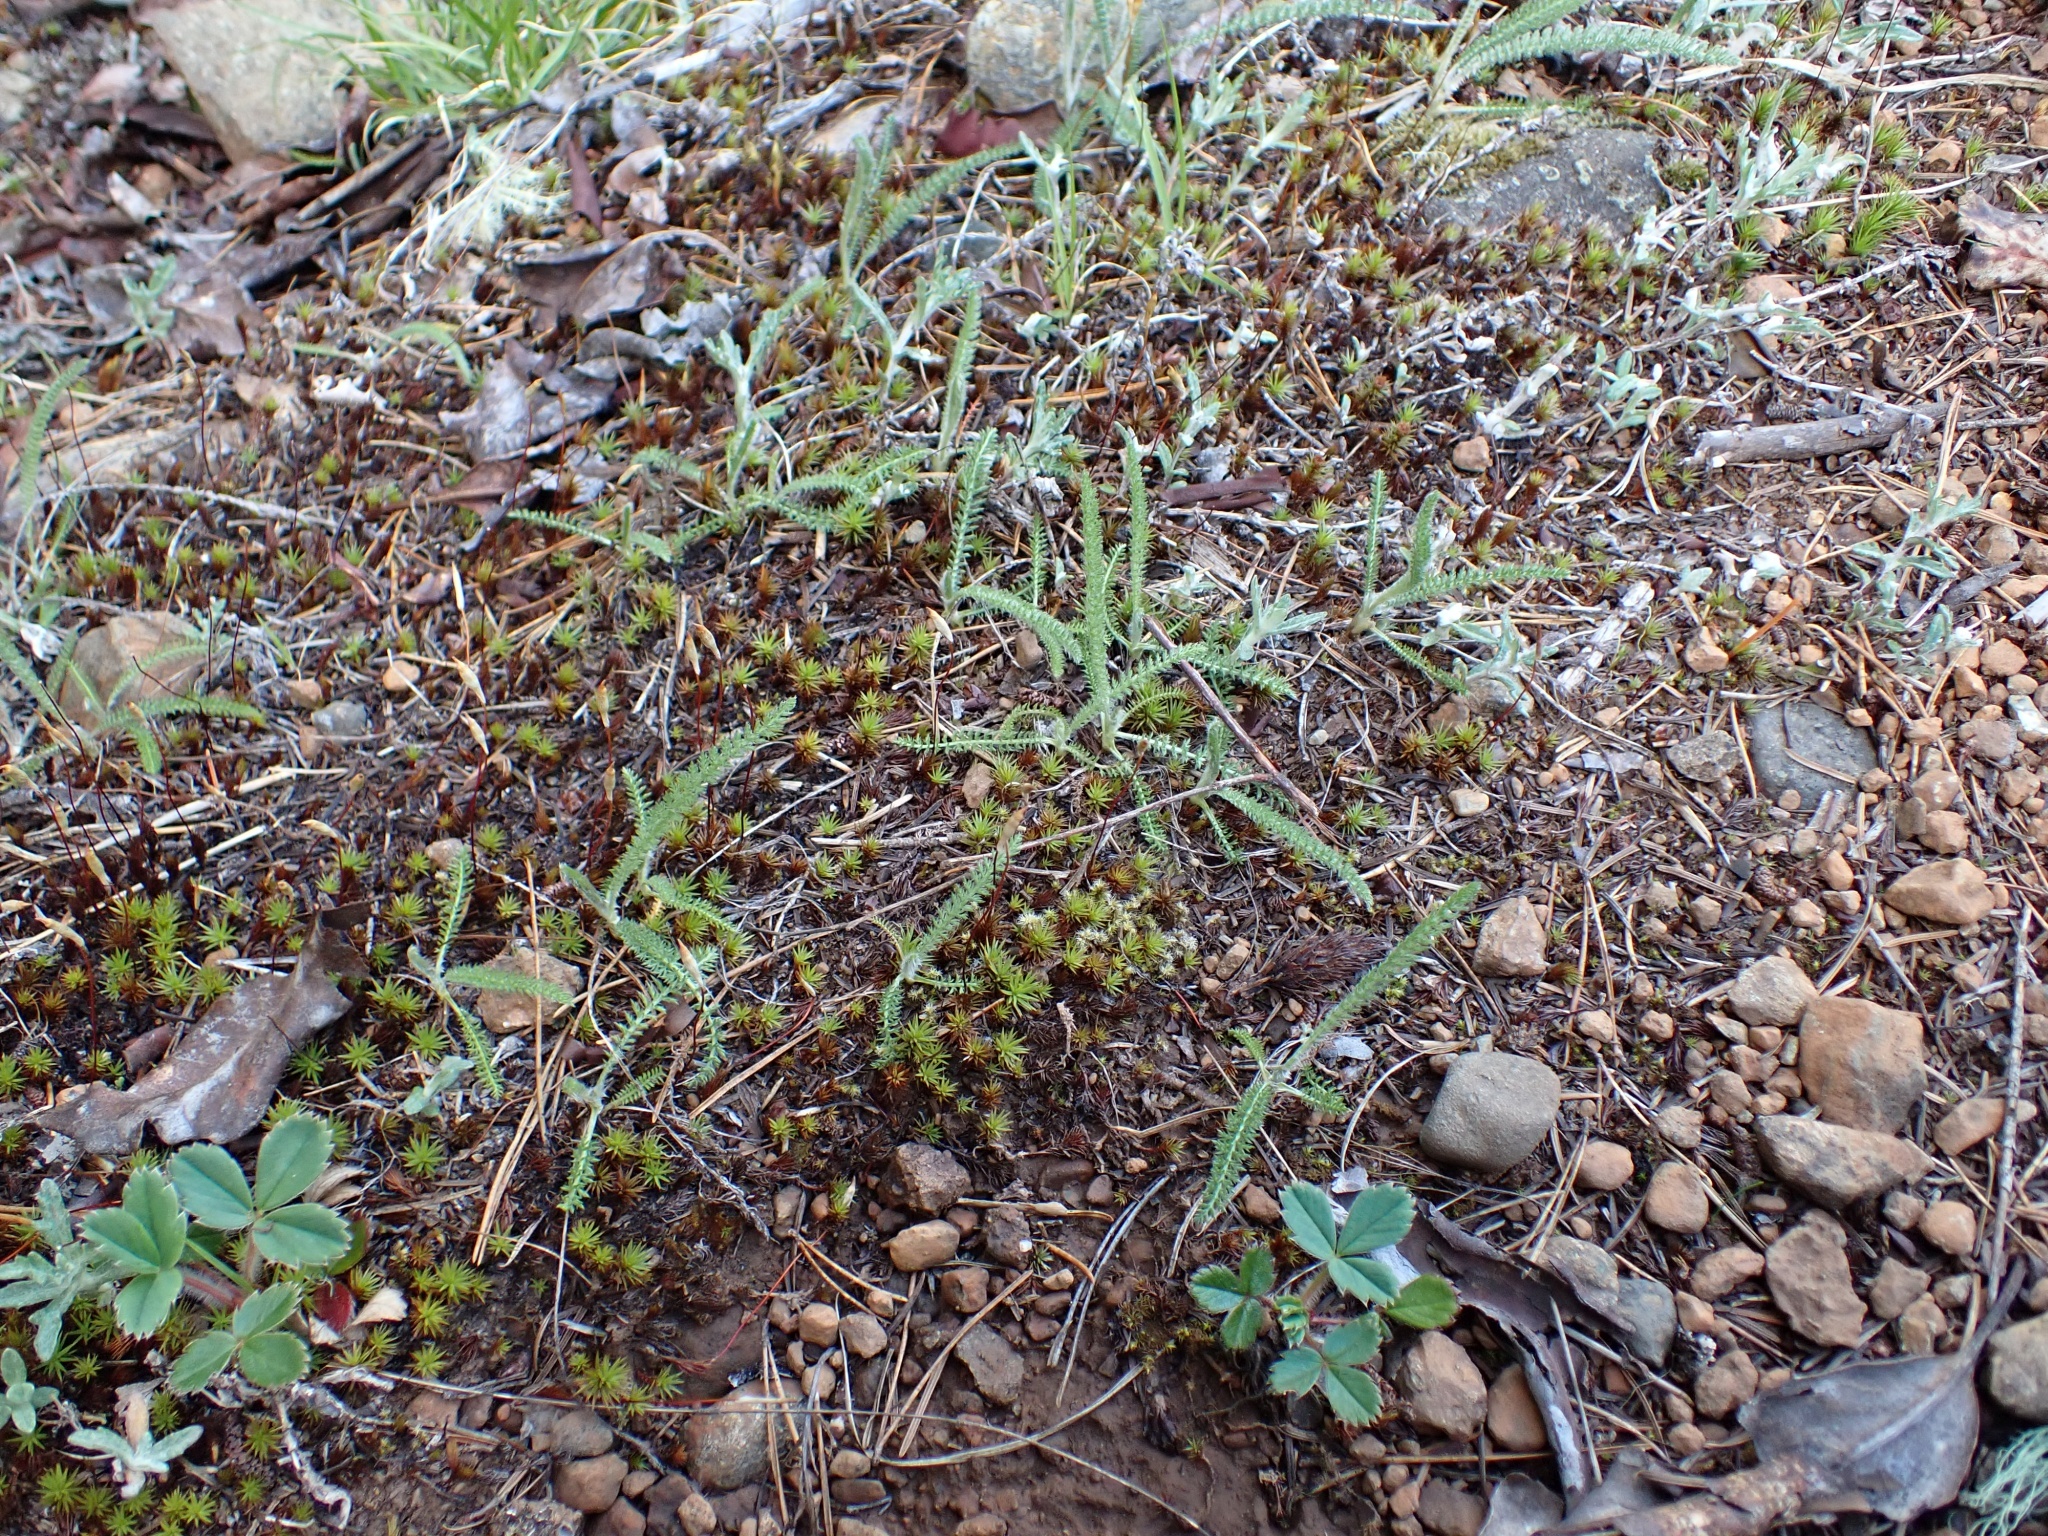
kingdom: Plantae
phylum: Tracheophyta
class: Magnoliopsida
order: Asterales
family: Asteraceae
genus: Achillea
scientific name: Achillea millefolium
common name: Yarrow
